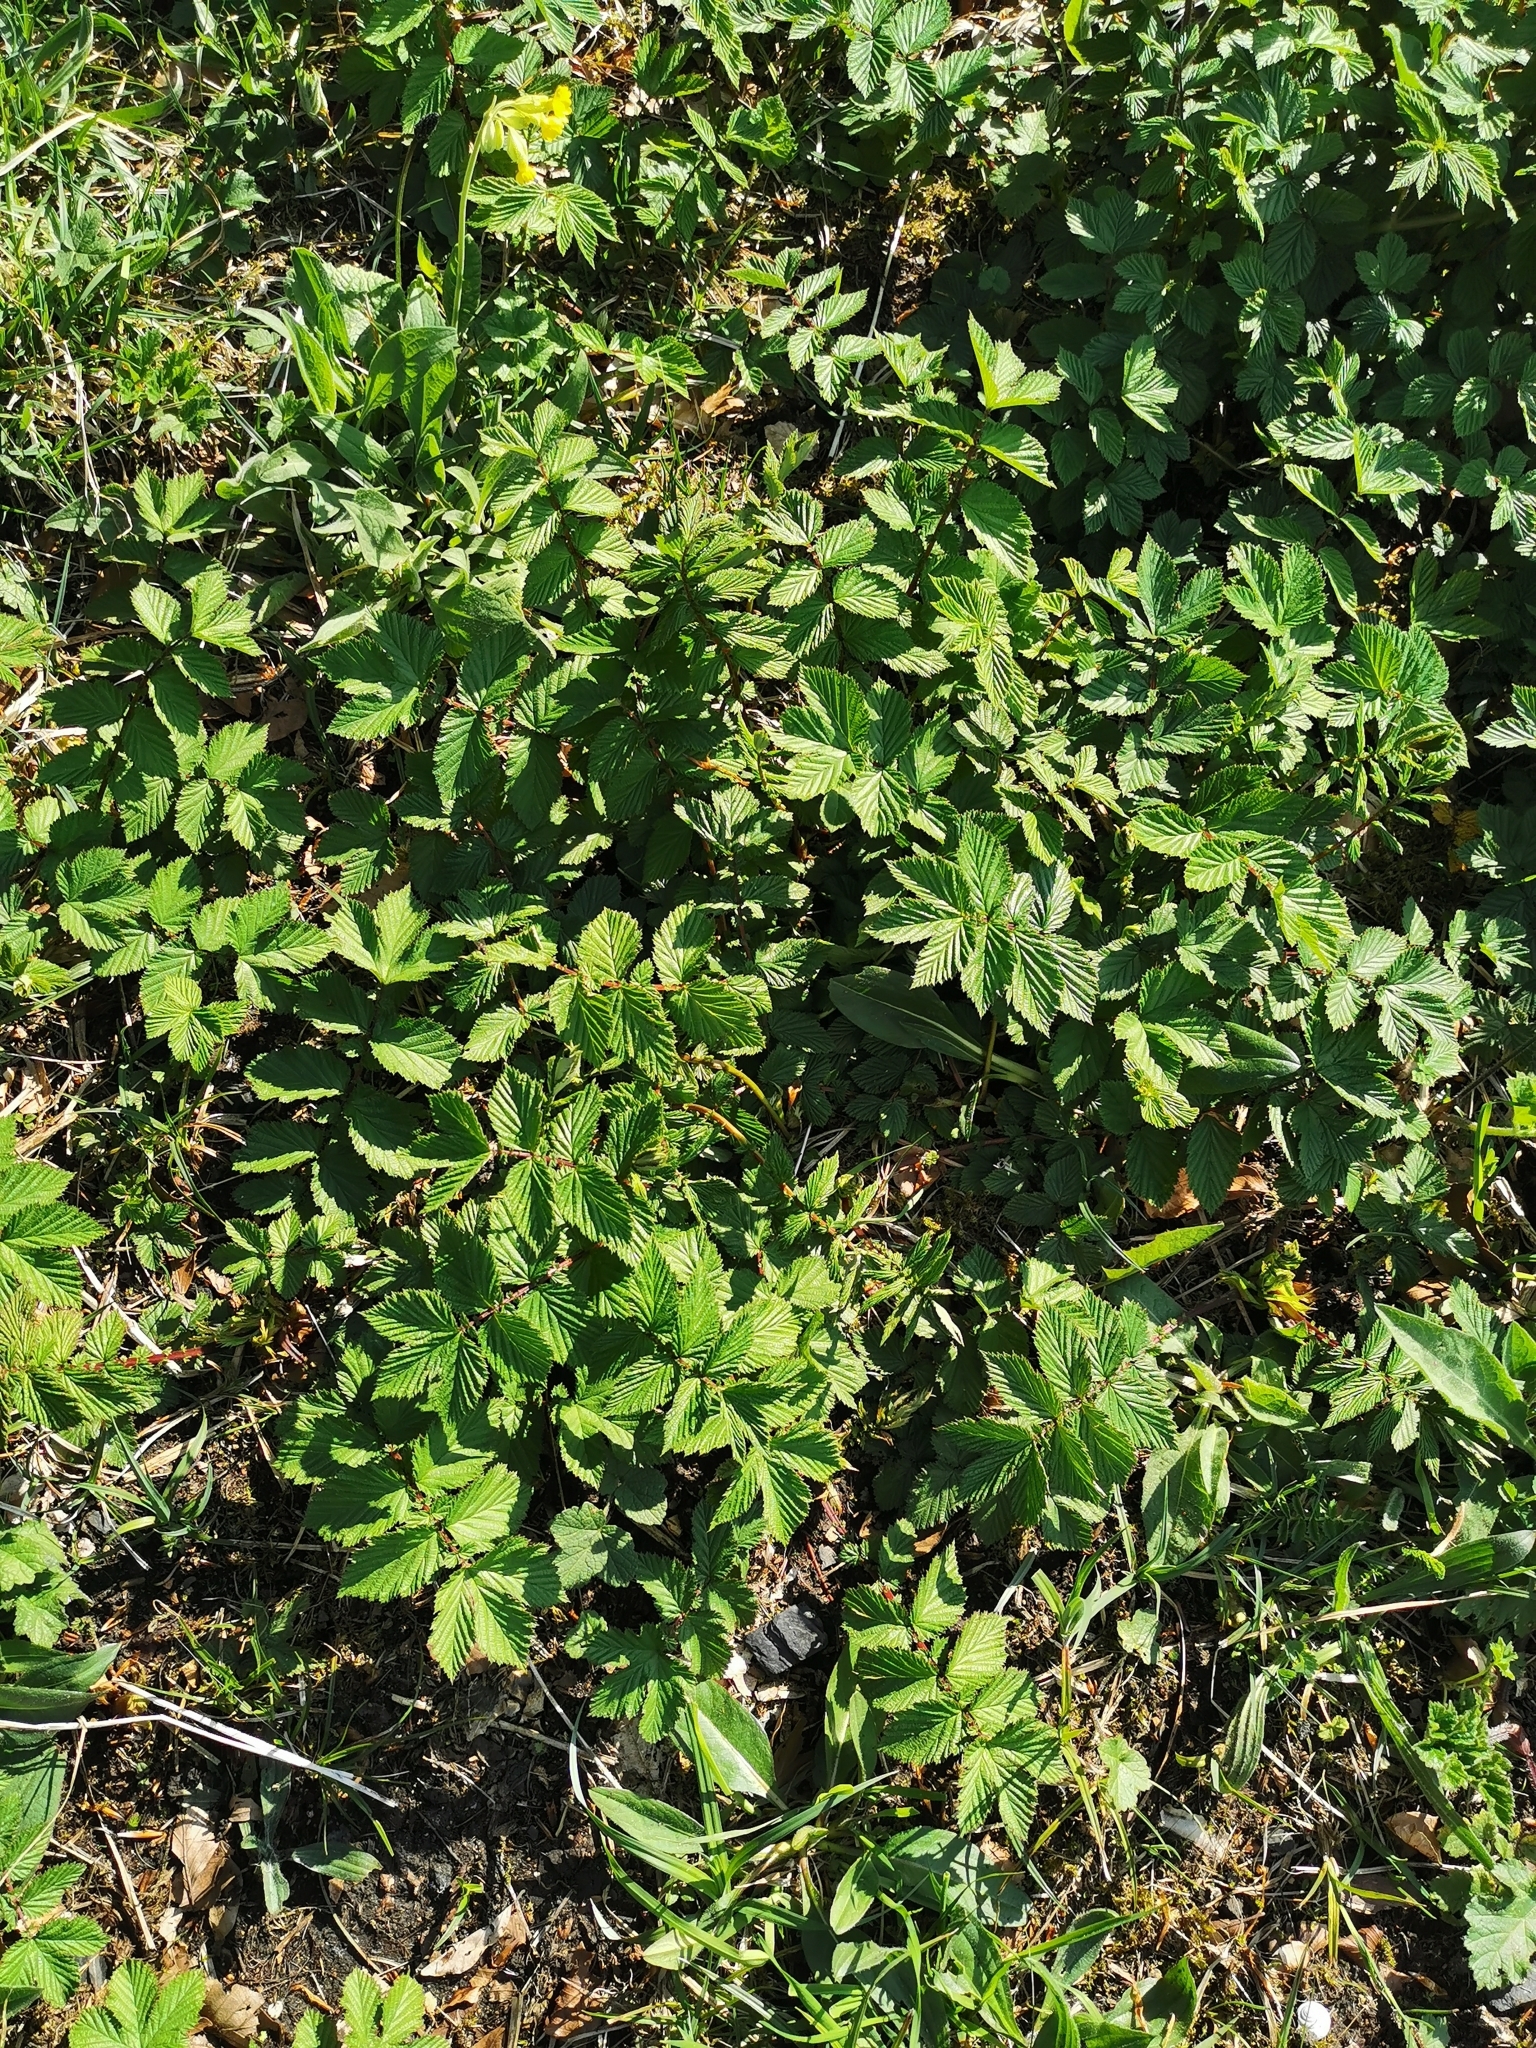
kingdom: Plantae
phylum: Tracheophyta
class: Magnoliopsida
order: Rosales
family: Rosaceae
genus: Filipendula
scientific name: Filipendula ulmaria
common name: Meadowsweet
